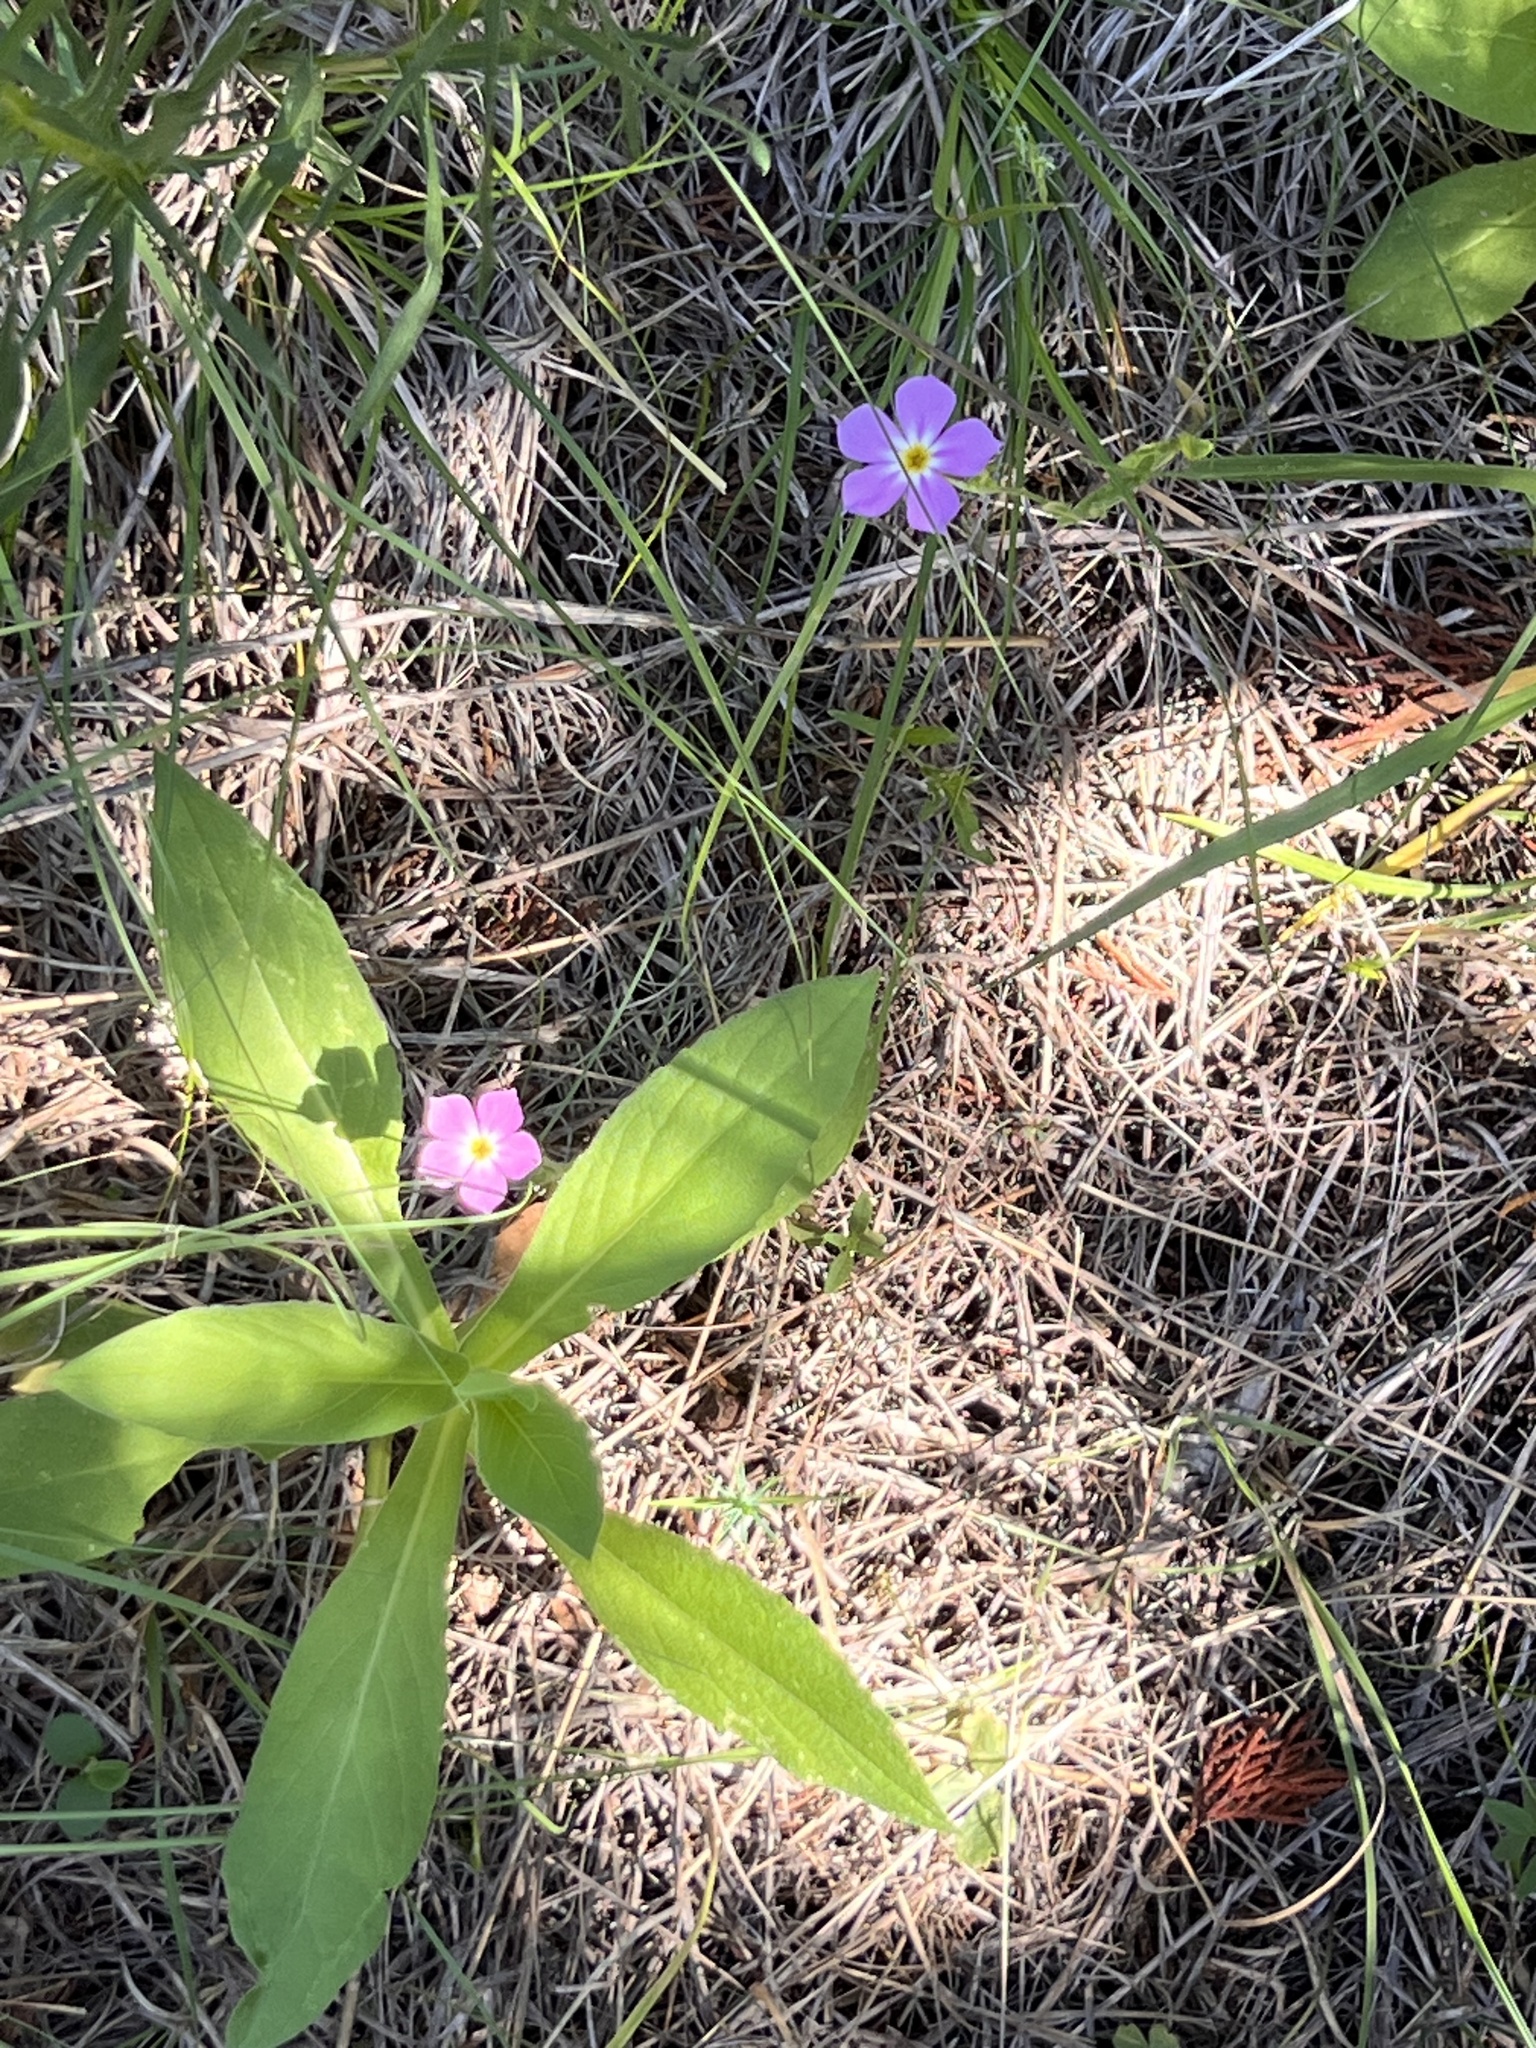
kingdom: Plantae
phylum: Tracheophyta
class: Magnoliopsida
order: Ericales
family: Polemoniaceae
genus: Phlox
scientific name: Phlox roemeriana
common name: Roemer's phlox
